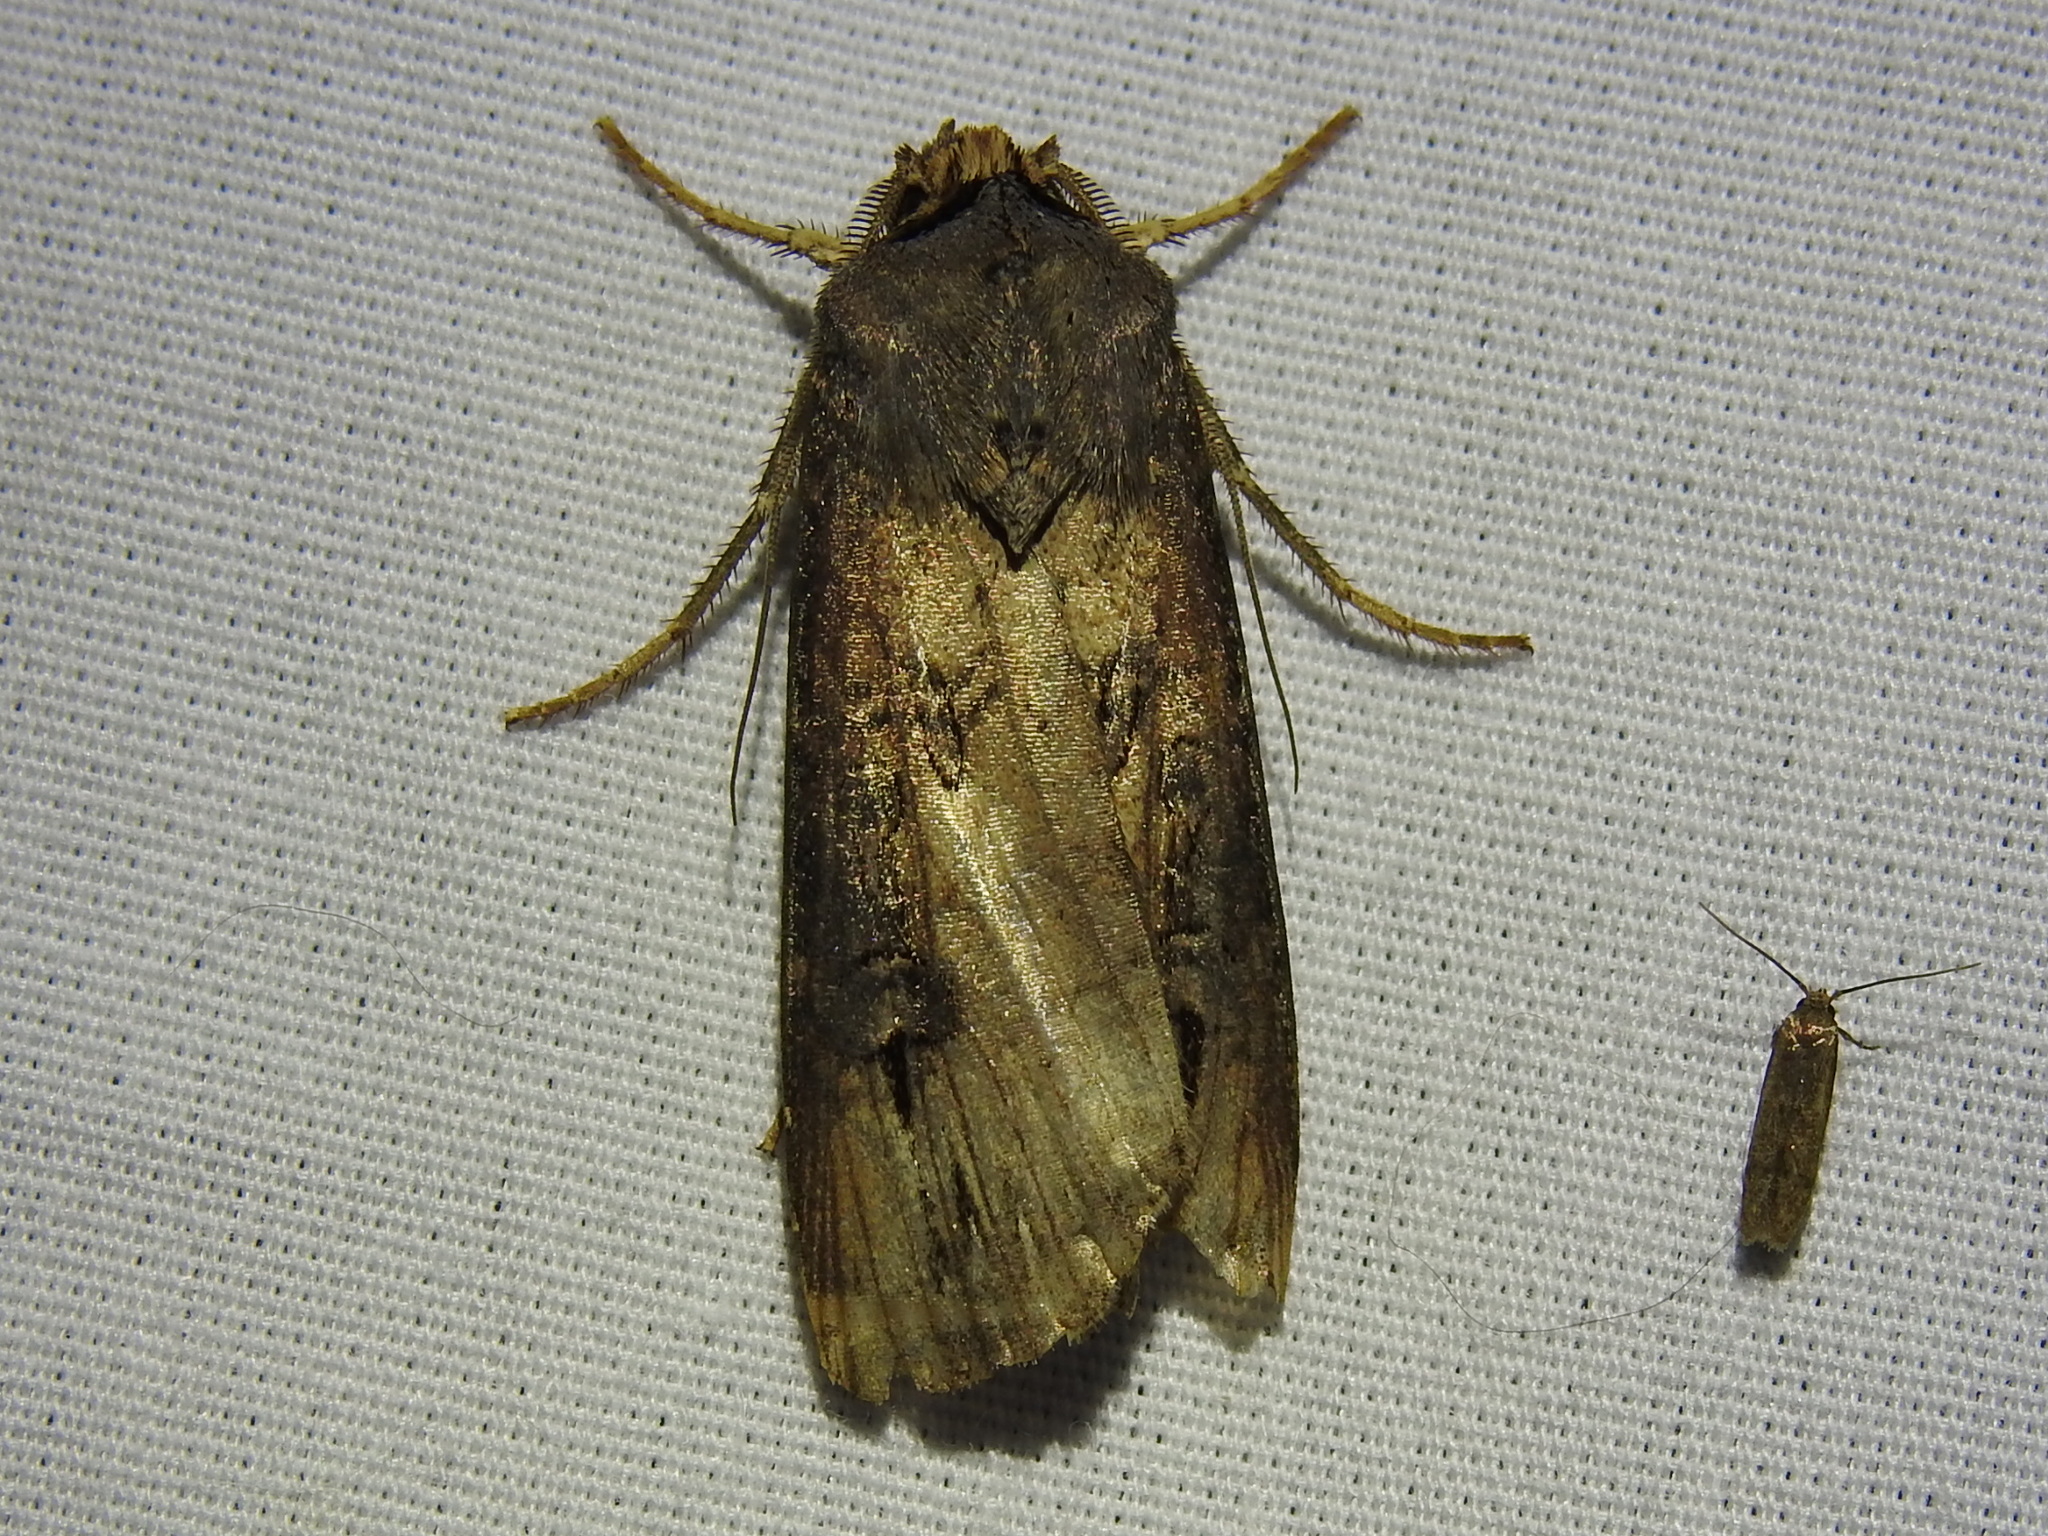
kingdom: Animalia
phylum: Arthropoda
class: Insecta
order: Lepidoptera
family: Noctuidae
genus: Agrotis
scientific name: Agrotis ipsilon
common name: Dark sword-grass
